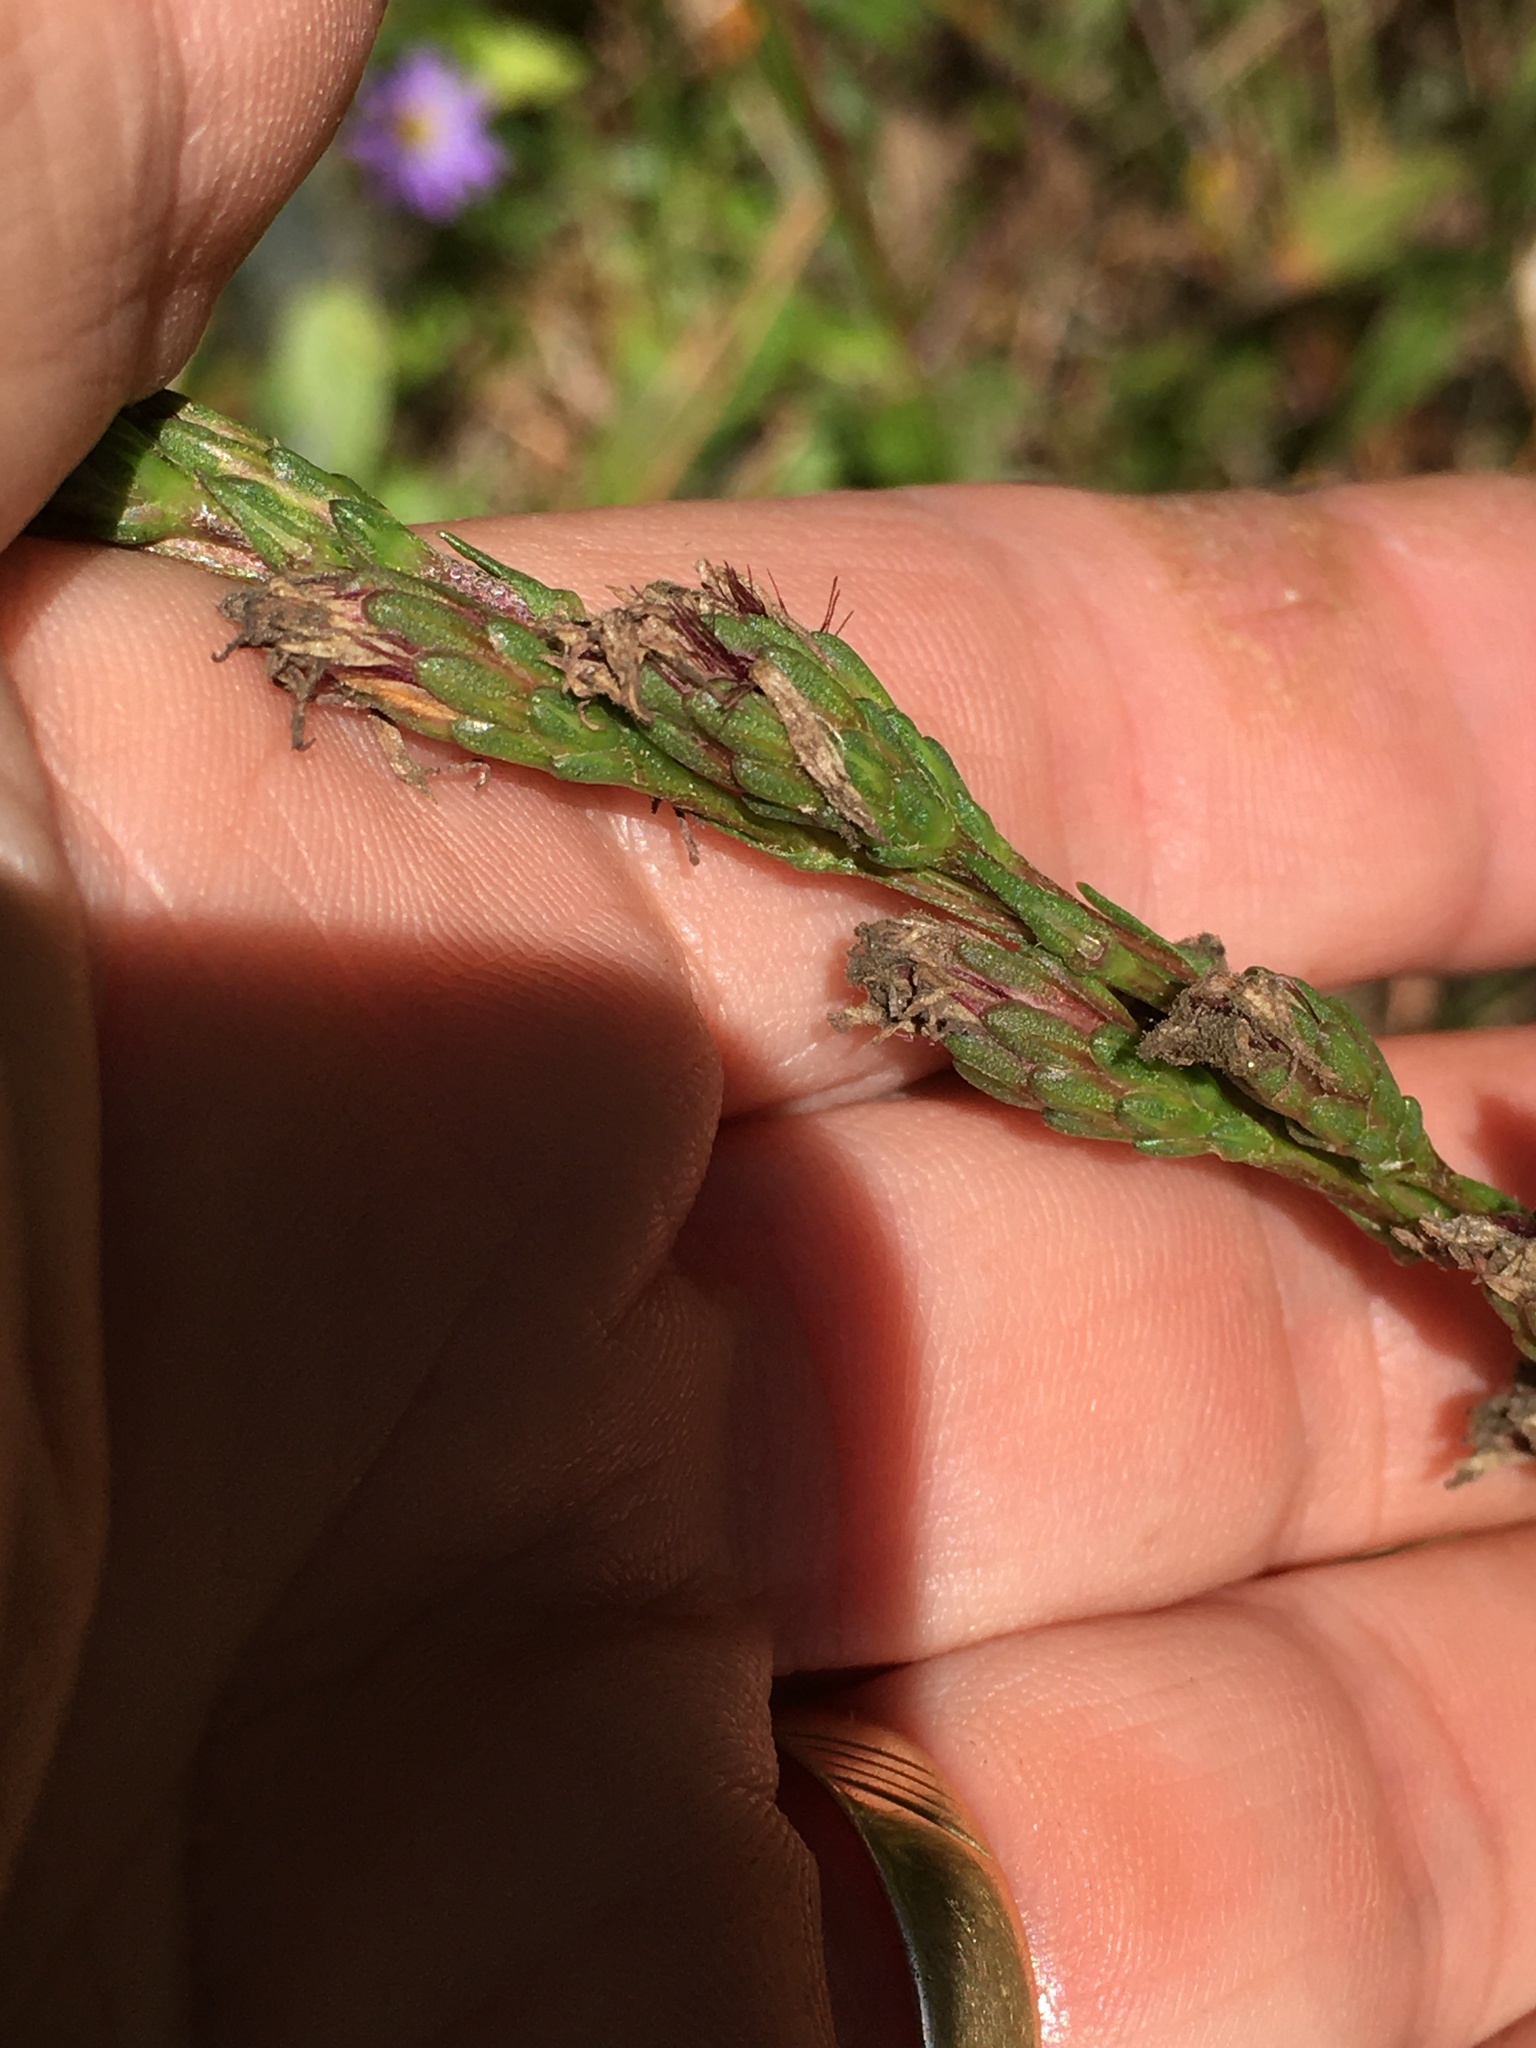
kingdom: Plantae
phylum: Tracheophyta
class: Magnoliopsida
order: Asterales
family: Asteraceae
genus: Liatris
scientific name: Liatris pilosa
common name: Grass-leaf gayfeather
